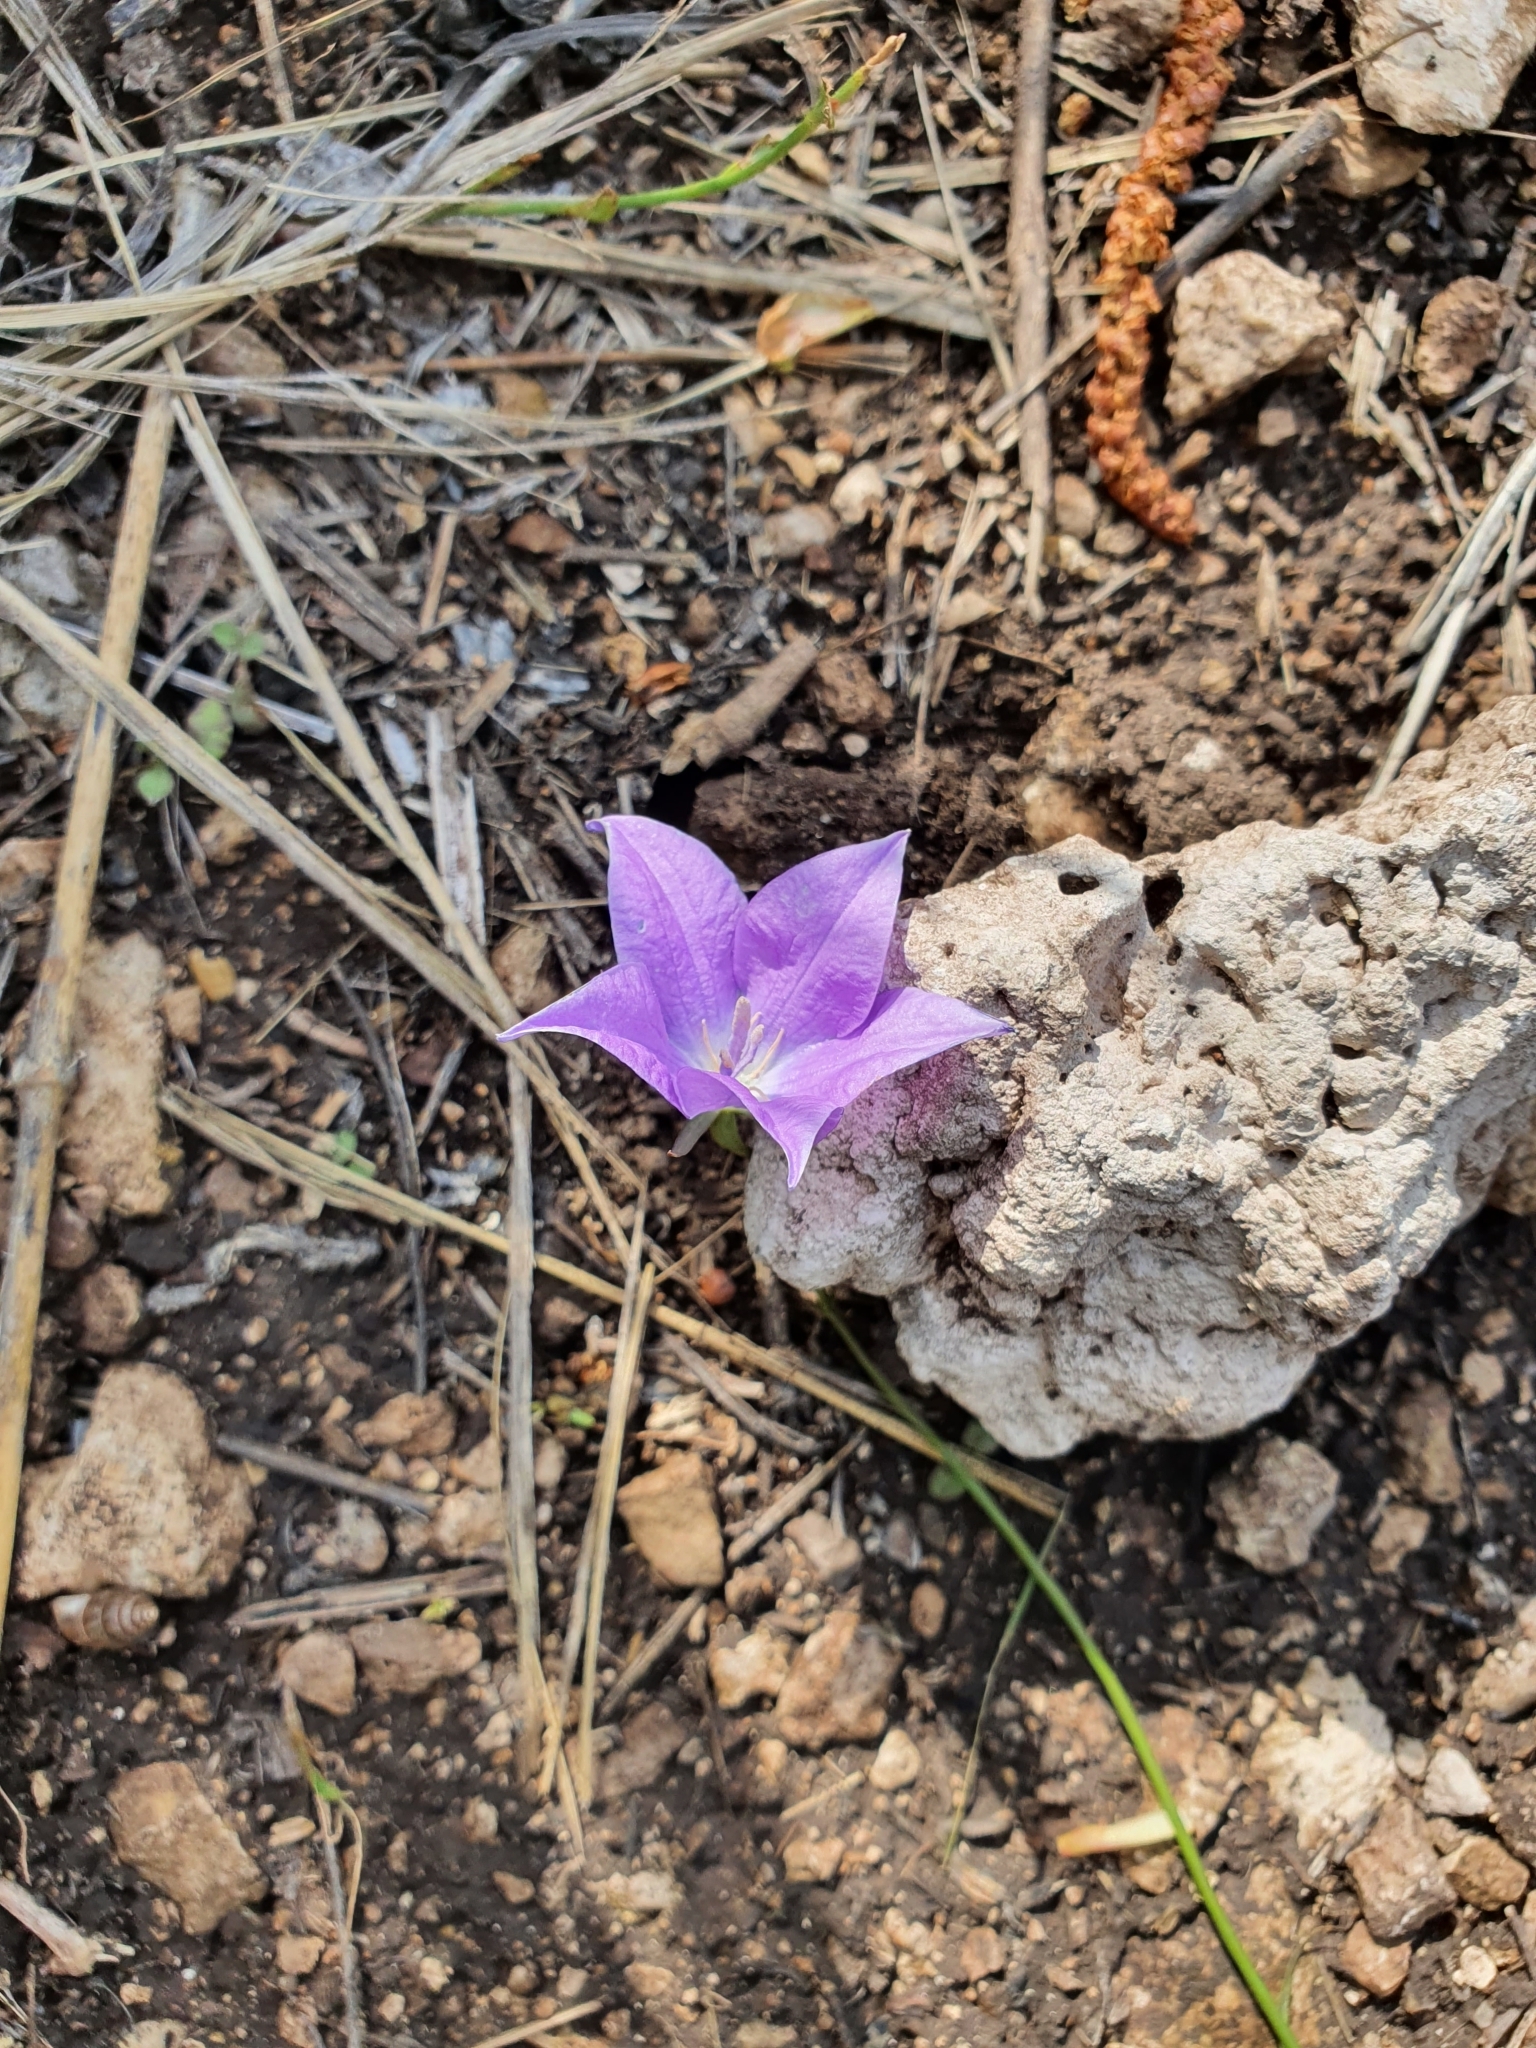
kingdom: Plantae
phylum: Tracheophyta
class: Magnoliopsida
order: Asterales
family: Campanulaceae
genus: Campanula
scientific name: Campanula stevenii
